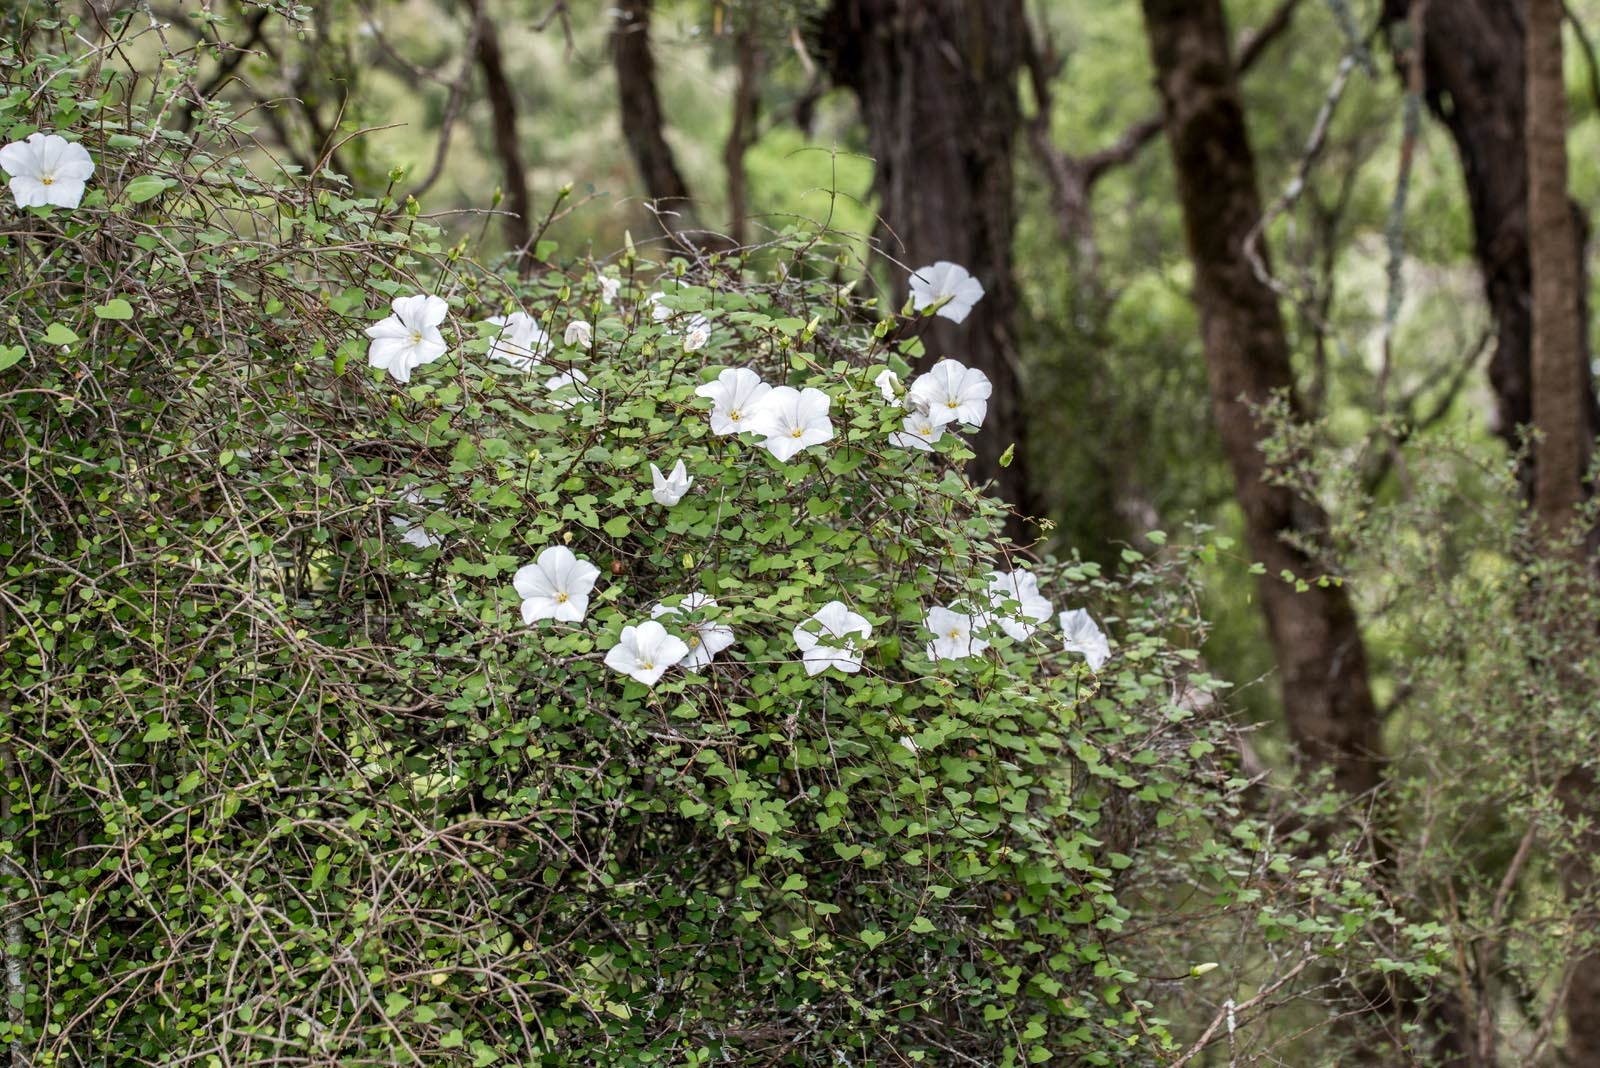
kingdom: Plantae
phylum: Tracheophyta
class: Magnoliopsida
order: Solanales
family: Convolvulaceae
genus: Calystegia
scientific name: Calystegia tuguriorum
